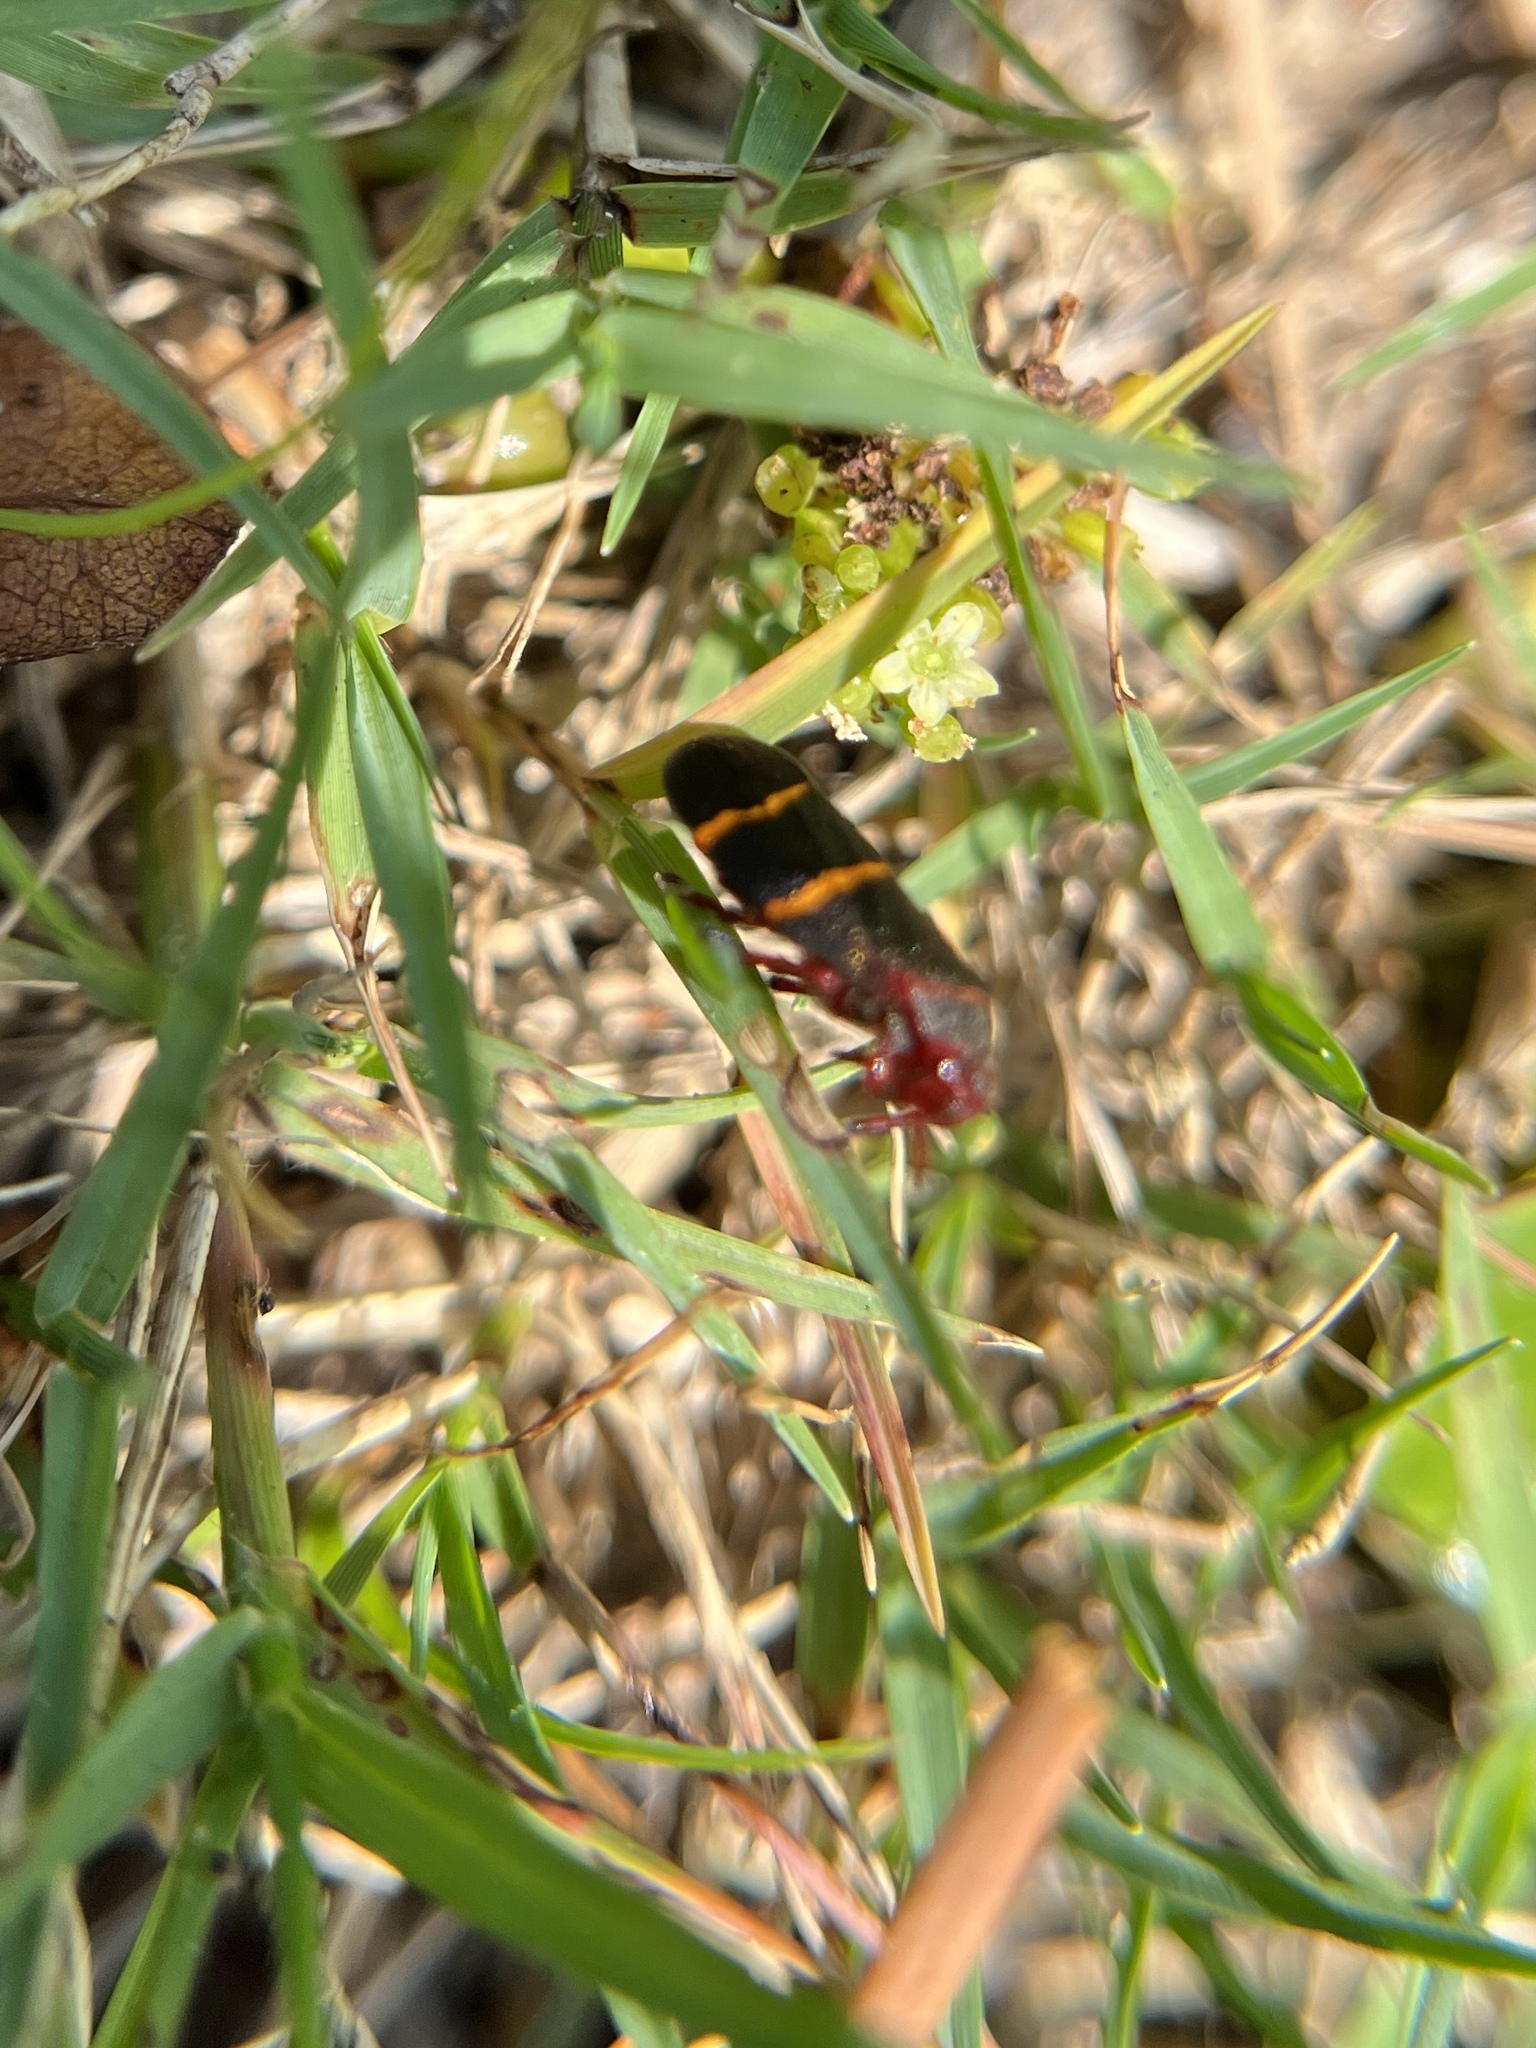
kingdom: Animalia
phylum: Arthropoda
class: Insecta
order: Hemiptera
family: Cercopidae
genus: Prosapia
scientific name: Prosapia bicincta
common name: Twolined spittlebug
